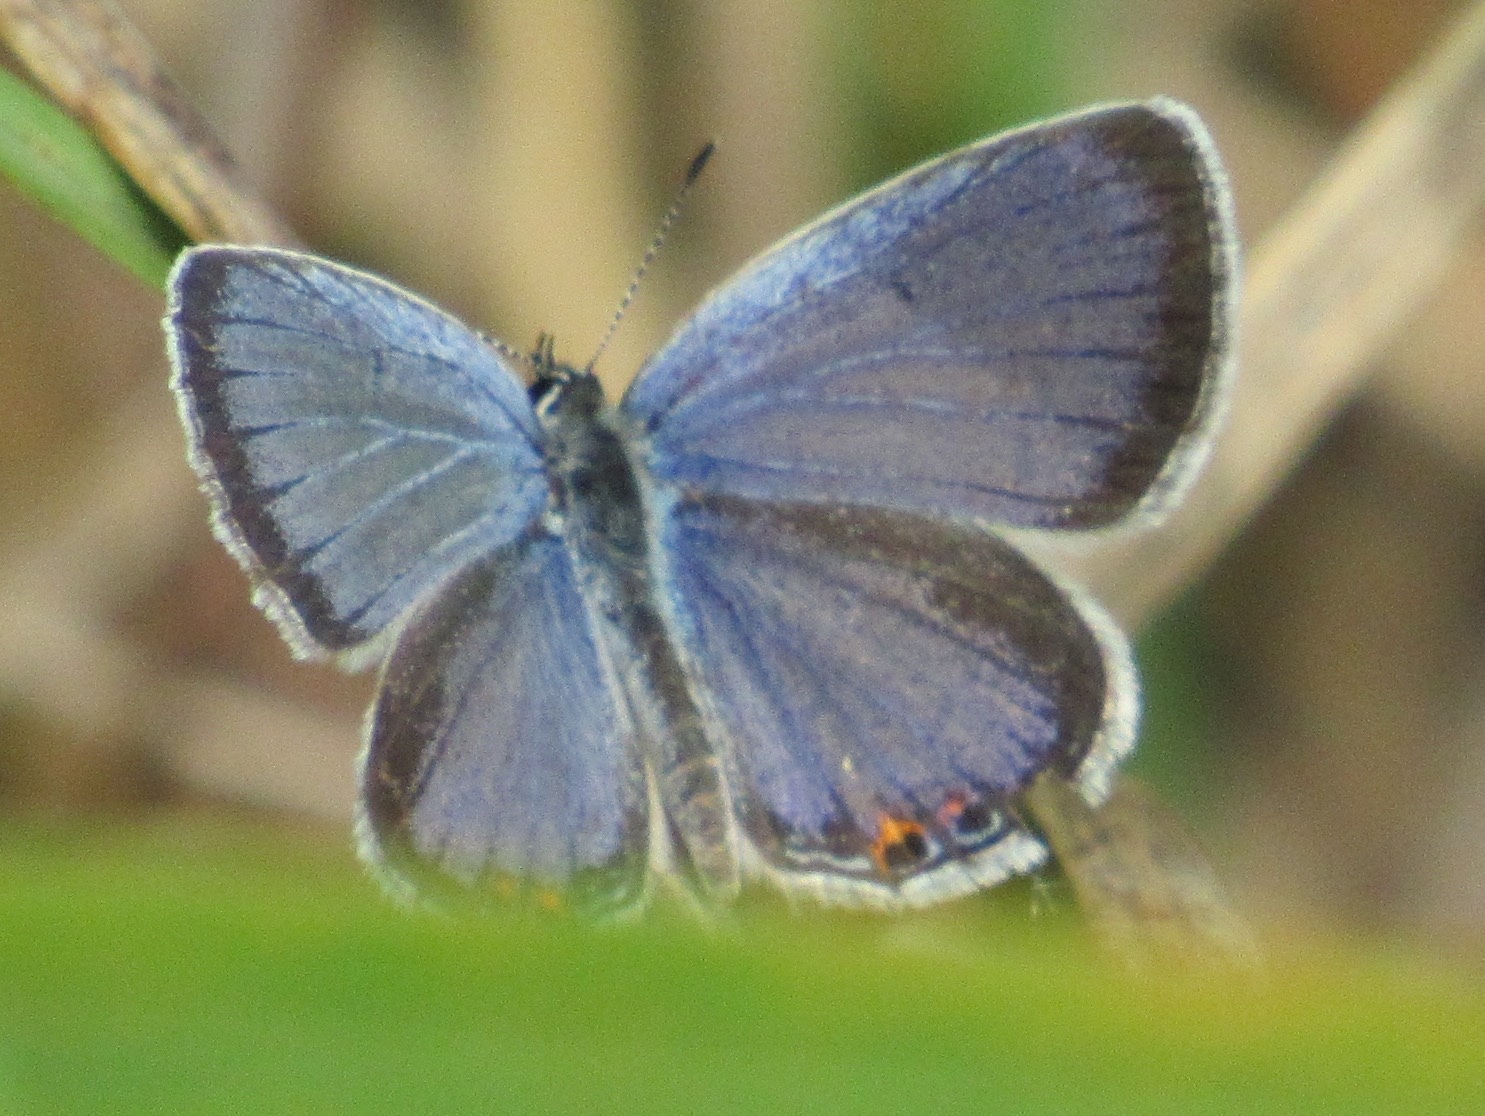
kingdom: Animalia
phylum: Arthropoda
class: Insecta
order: Lepidoptera
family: Lycaenidae
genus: Elkalyce
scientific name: Elkalyce comyntas
